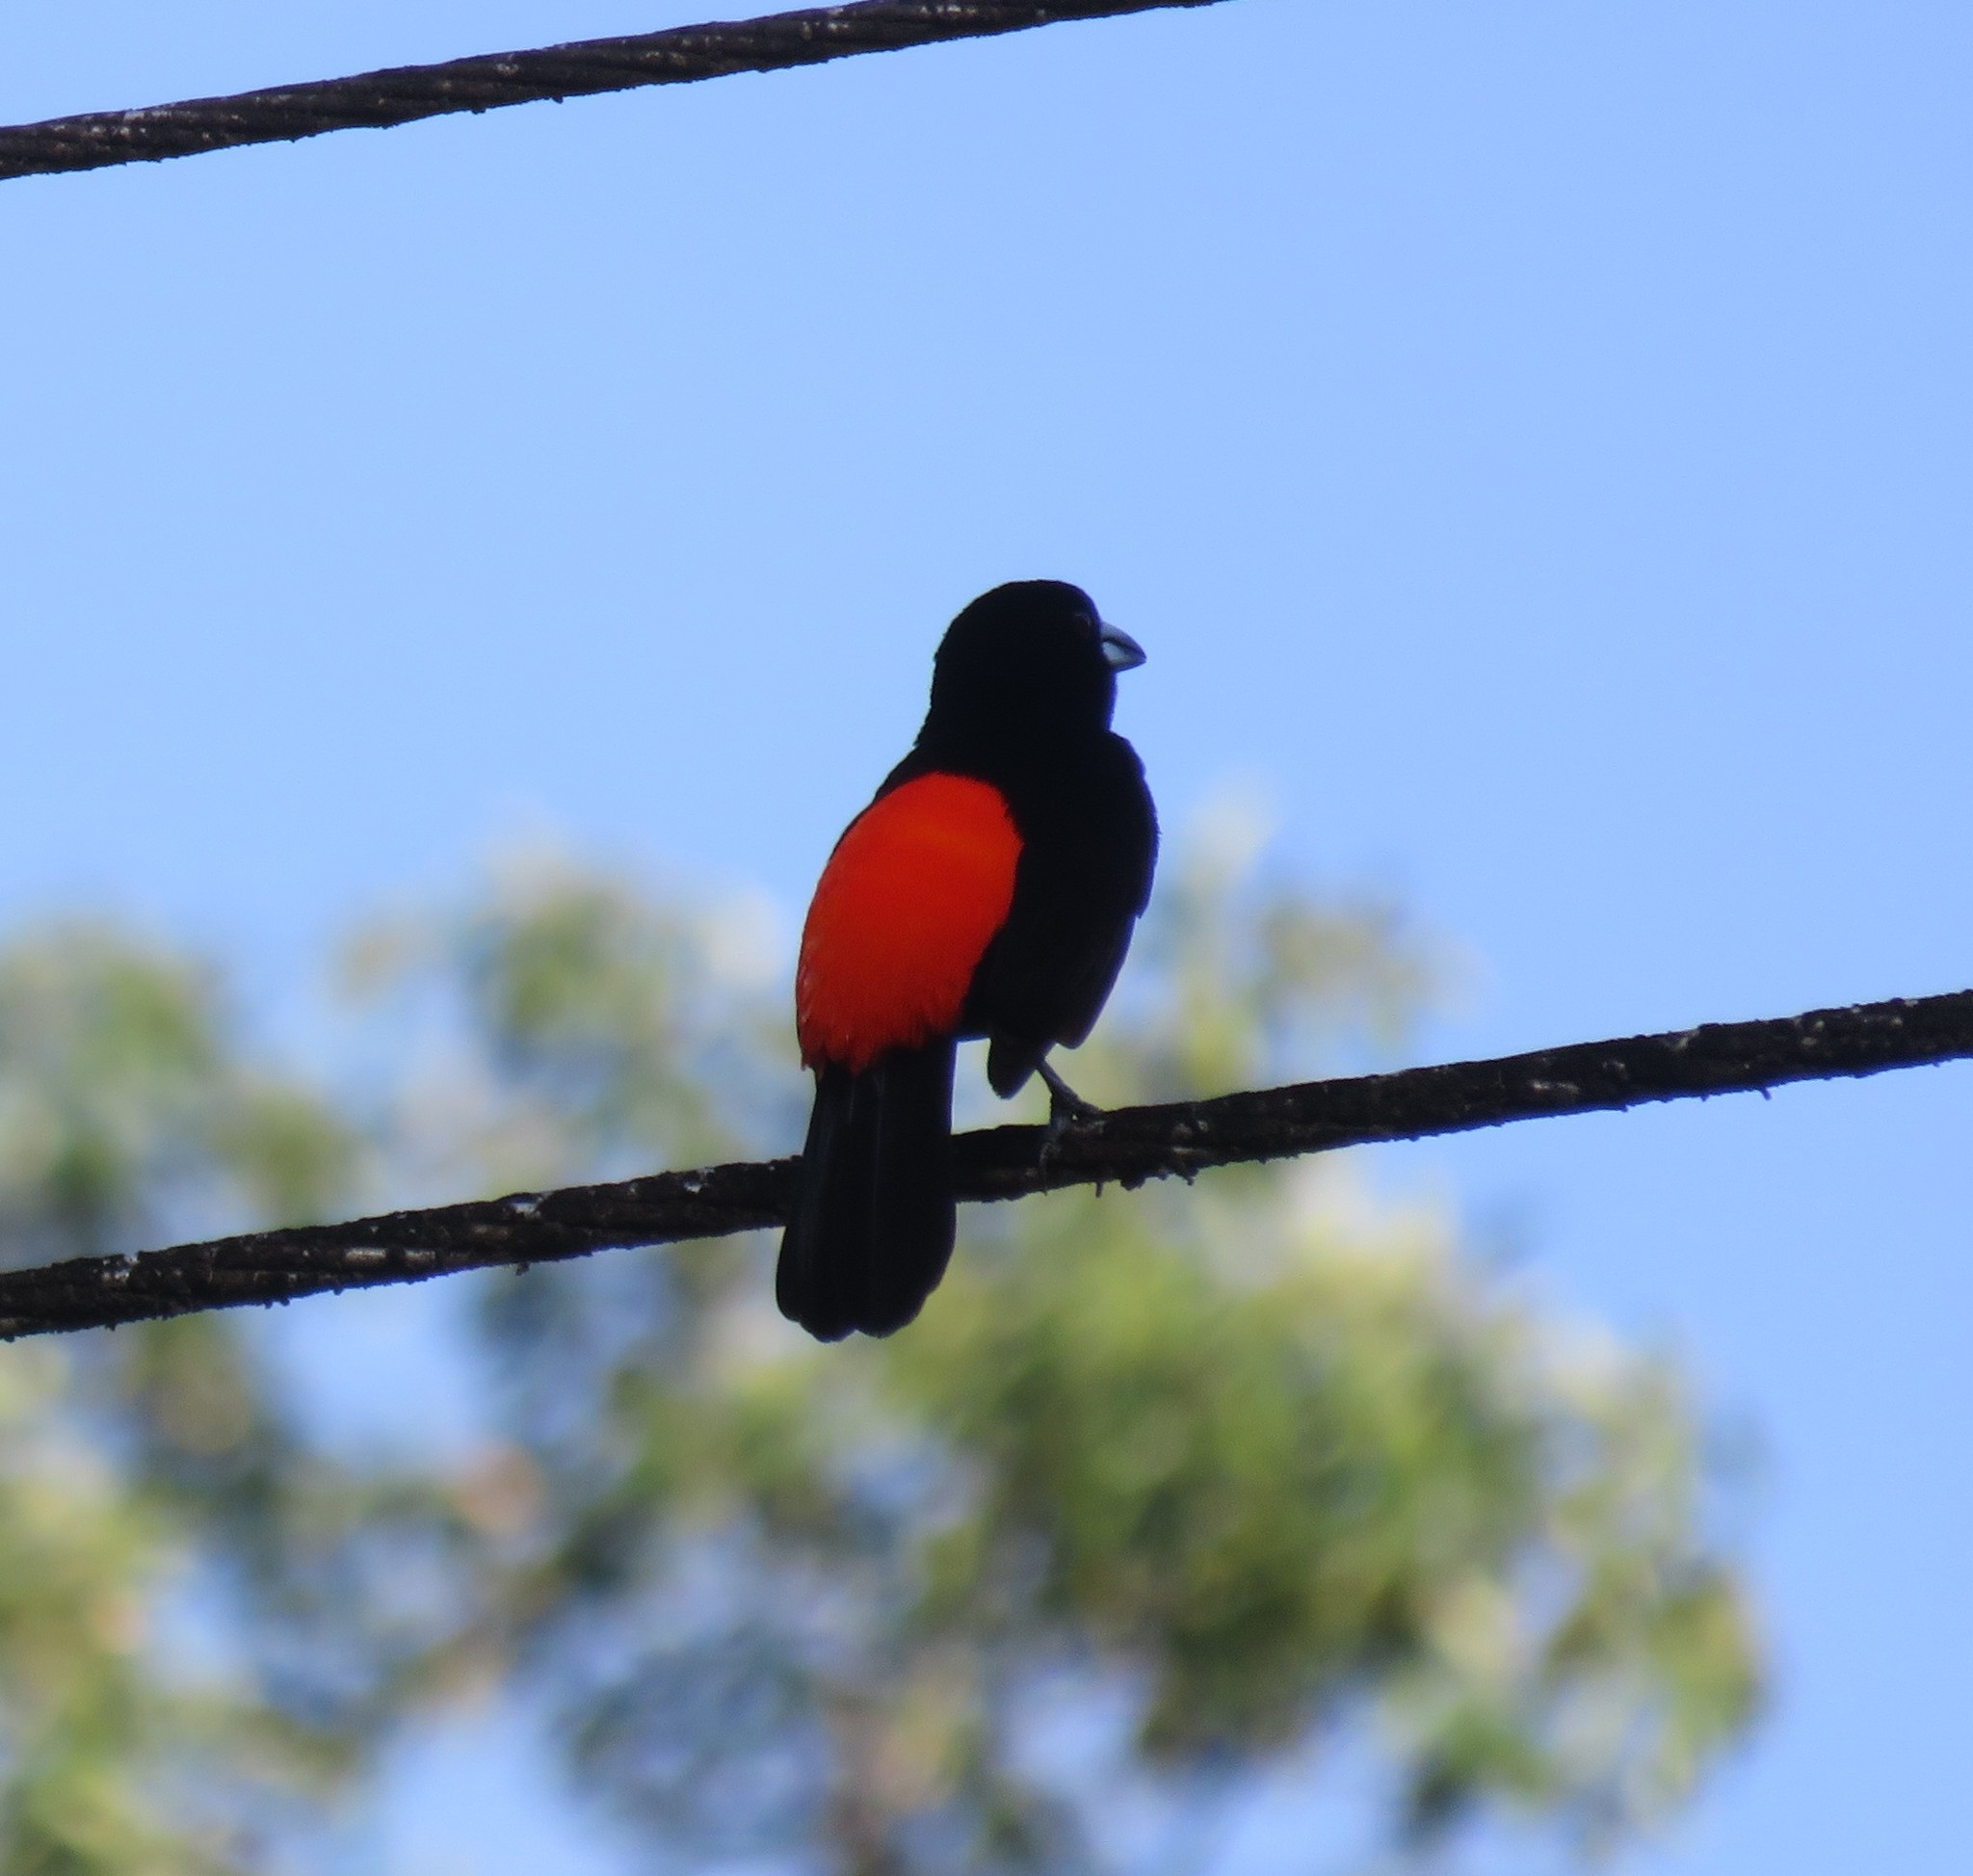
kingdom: Animalia
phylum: Chordata
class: Aves
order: Passeriformes
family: Thraupidae
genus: Ramphocelus
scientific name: Ramphocelus passerinii
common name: Passerini's tanager
